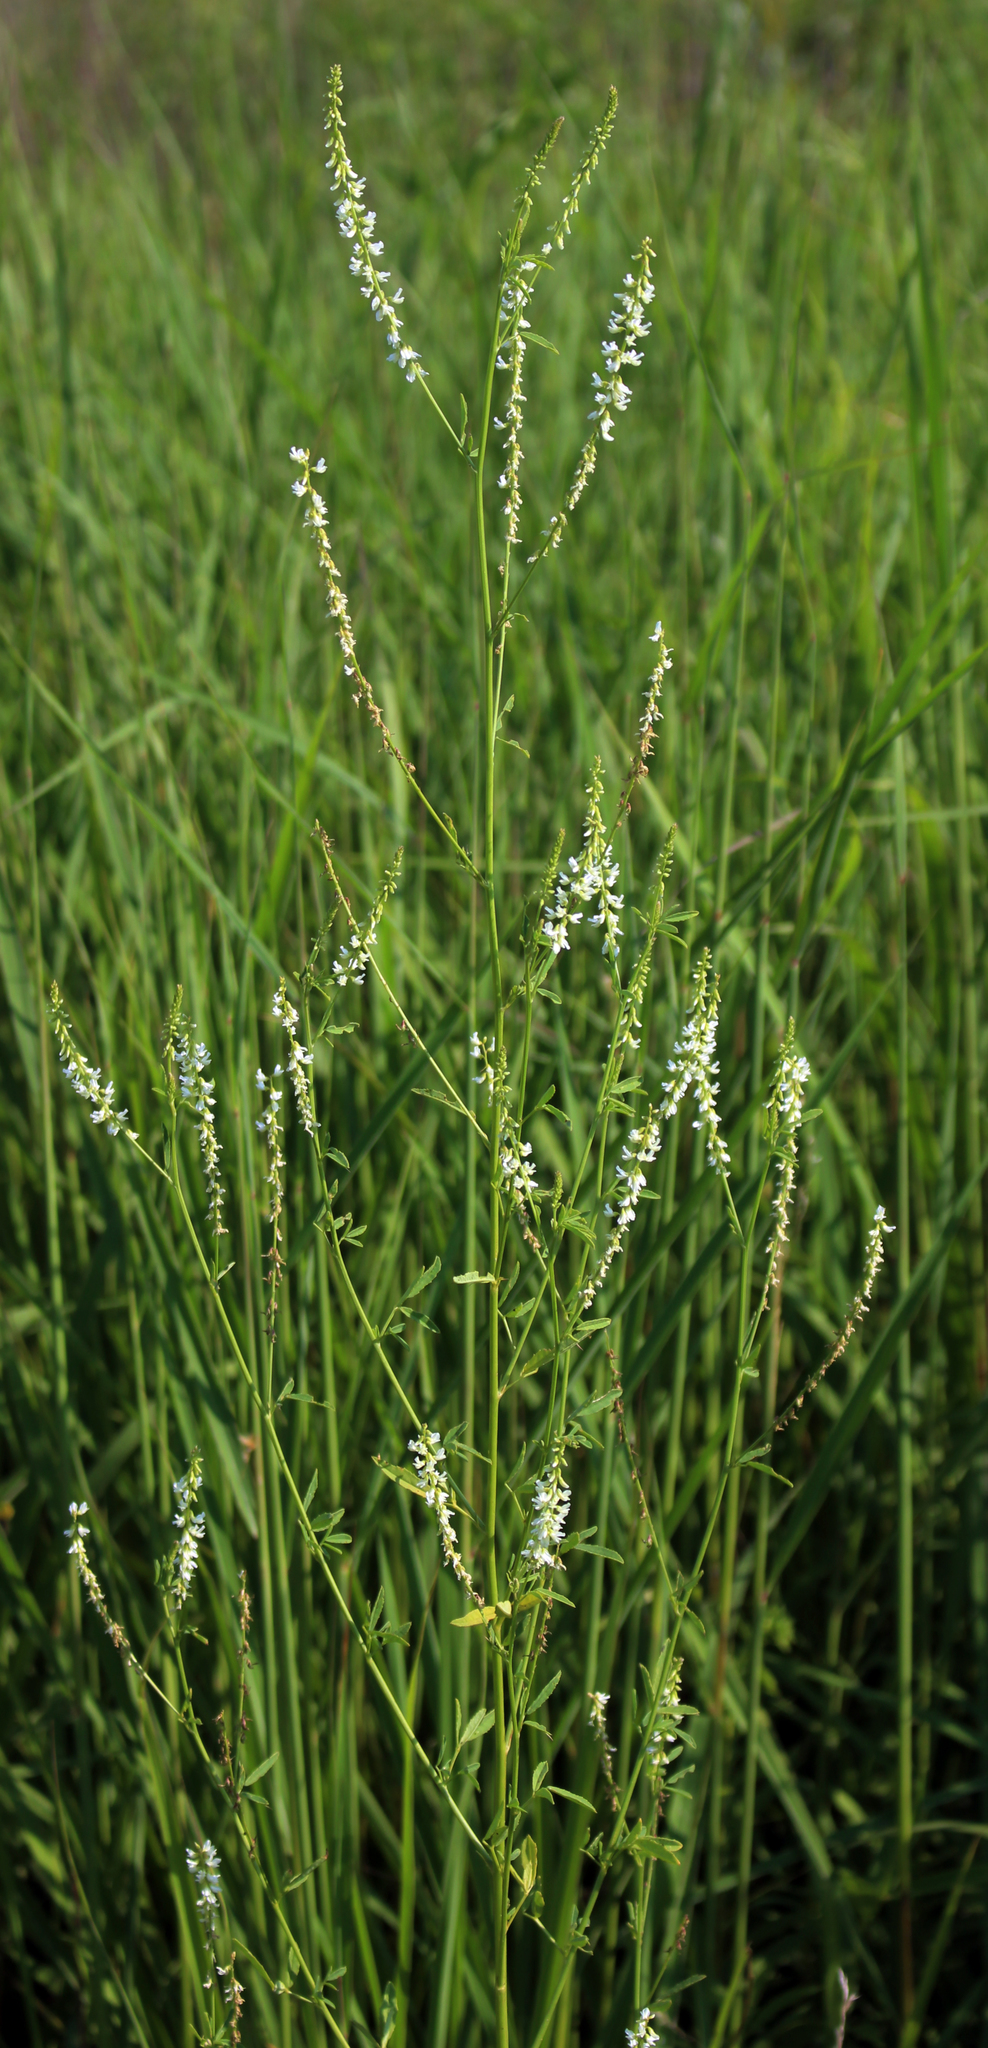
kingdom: Plantae
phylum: Tracheophyta
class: Magnoliopsida
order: Fabales
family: Fabaceae
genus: Melilotus
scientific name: Melilotus albus
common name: White melilot
